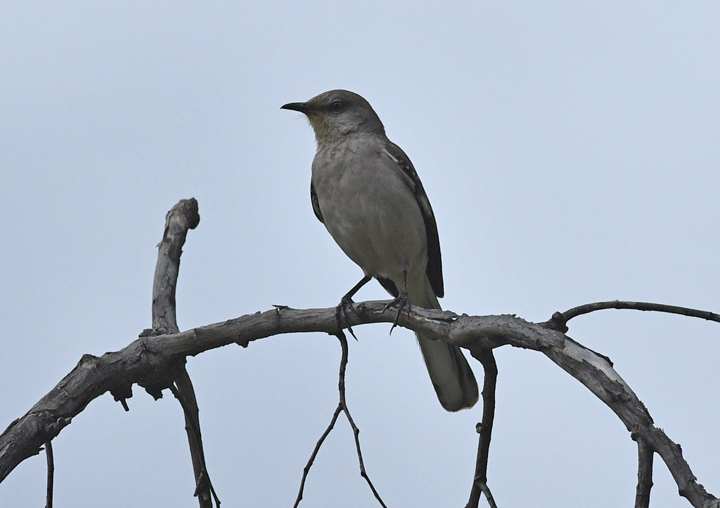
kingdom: Animalia
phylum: Chordata
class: Aves
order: Passeriformes
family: Mimidae
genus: Mimus
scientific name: Mimus polyglottos
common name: Northern mockingbird
